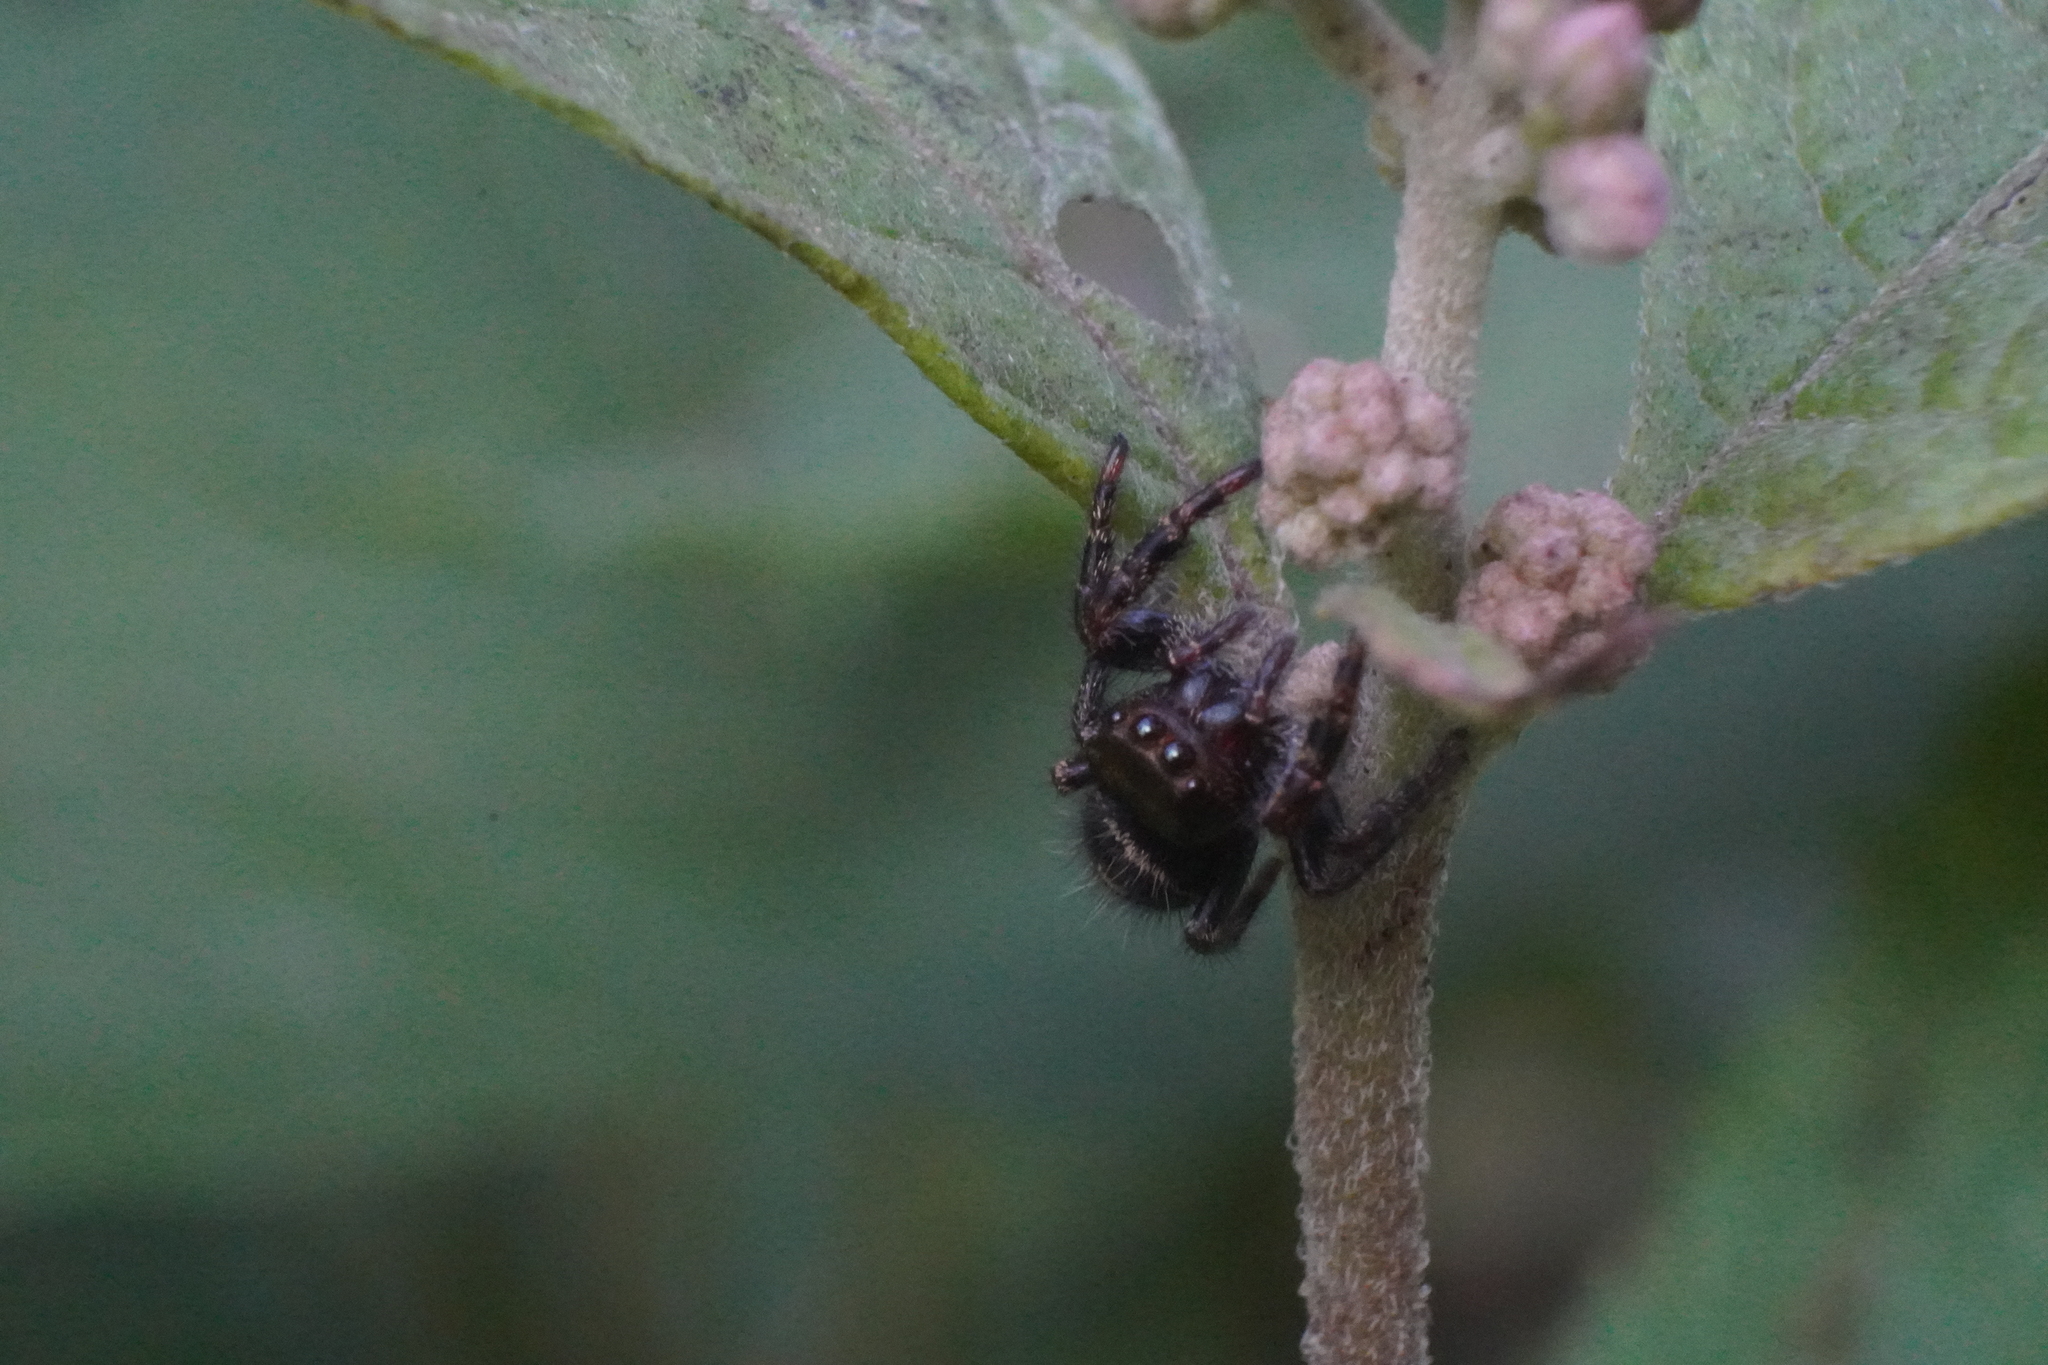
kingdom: Animalia
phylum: Arthropoda
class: Arachnida
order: Araneae
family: Salticidae
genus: Phidippus
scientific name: Phidippus audax
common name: Bold jumper
